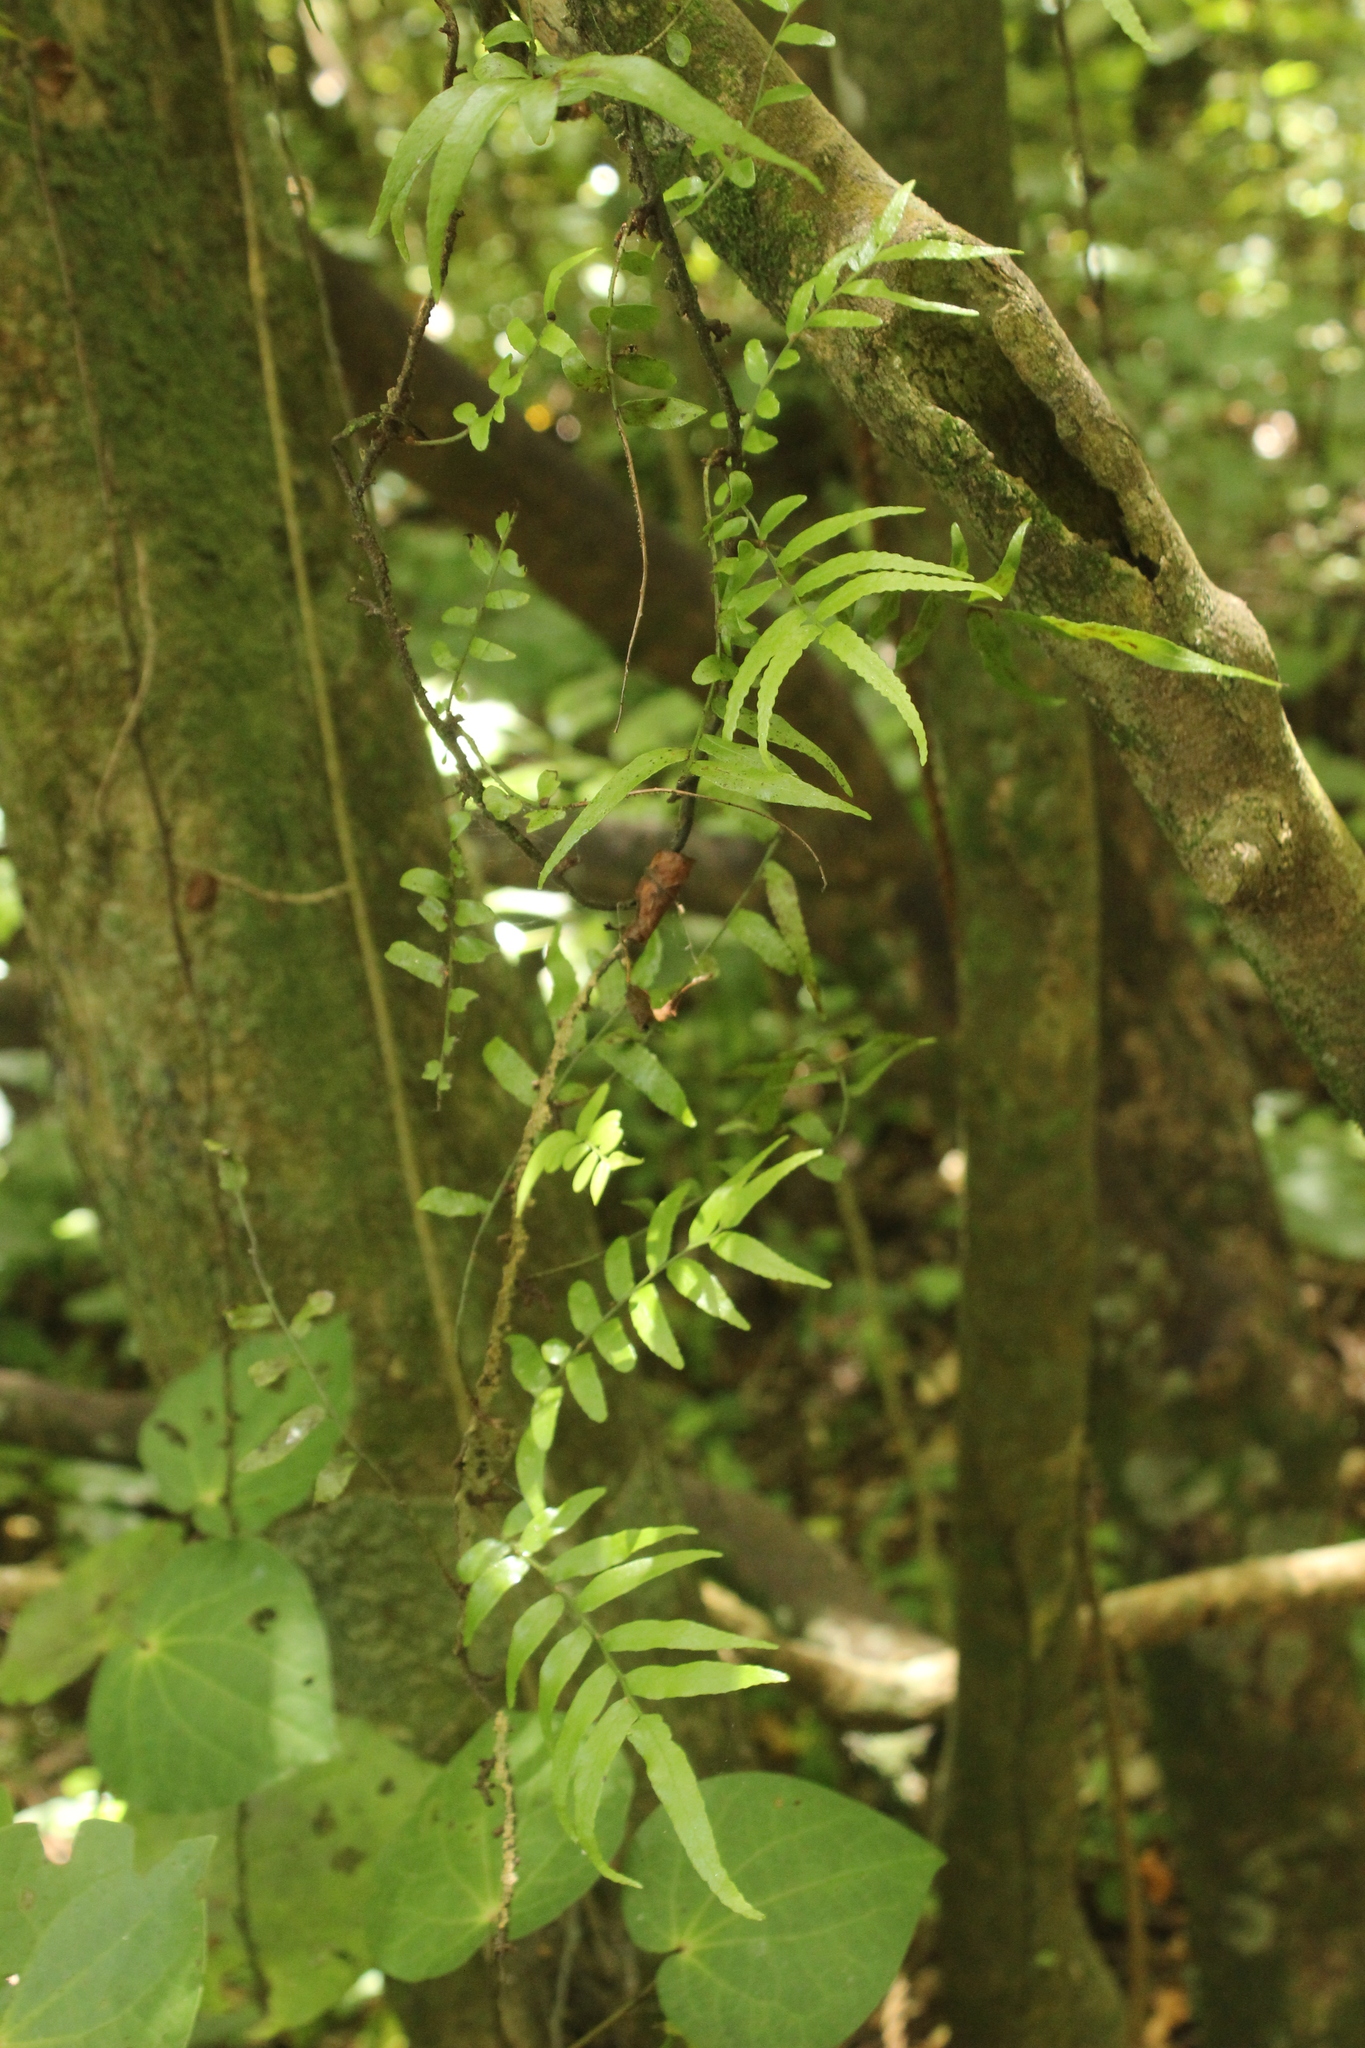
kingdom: Plantae
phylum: Tracheophyta
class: Polypodiopsida
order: Polypodiales
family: Tectariaceae
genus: Arthropteris
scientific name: Arthropteris tenella
